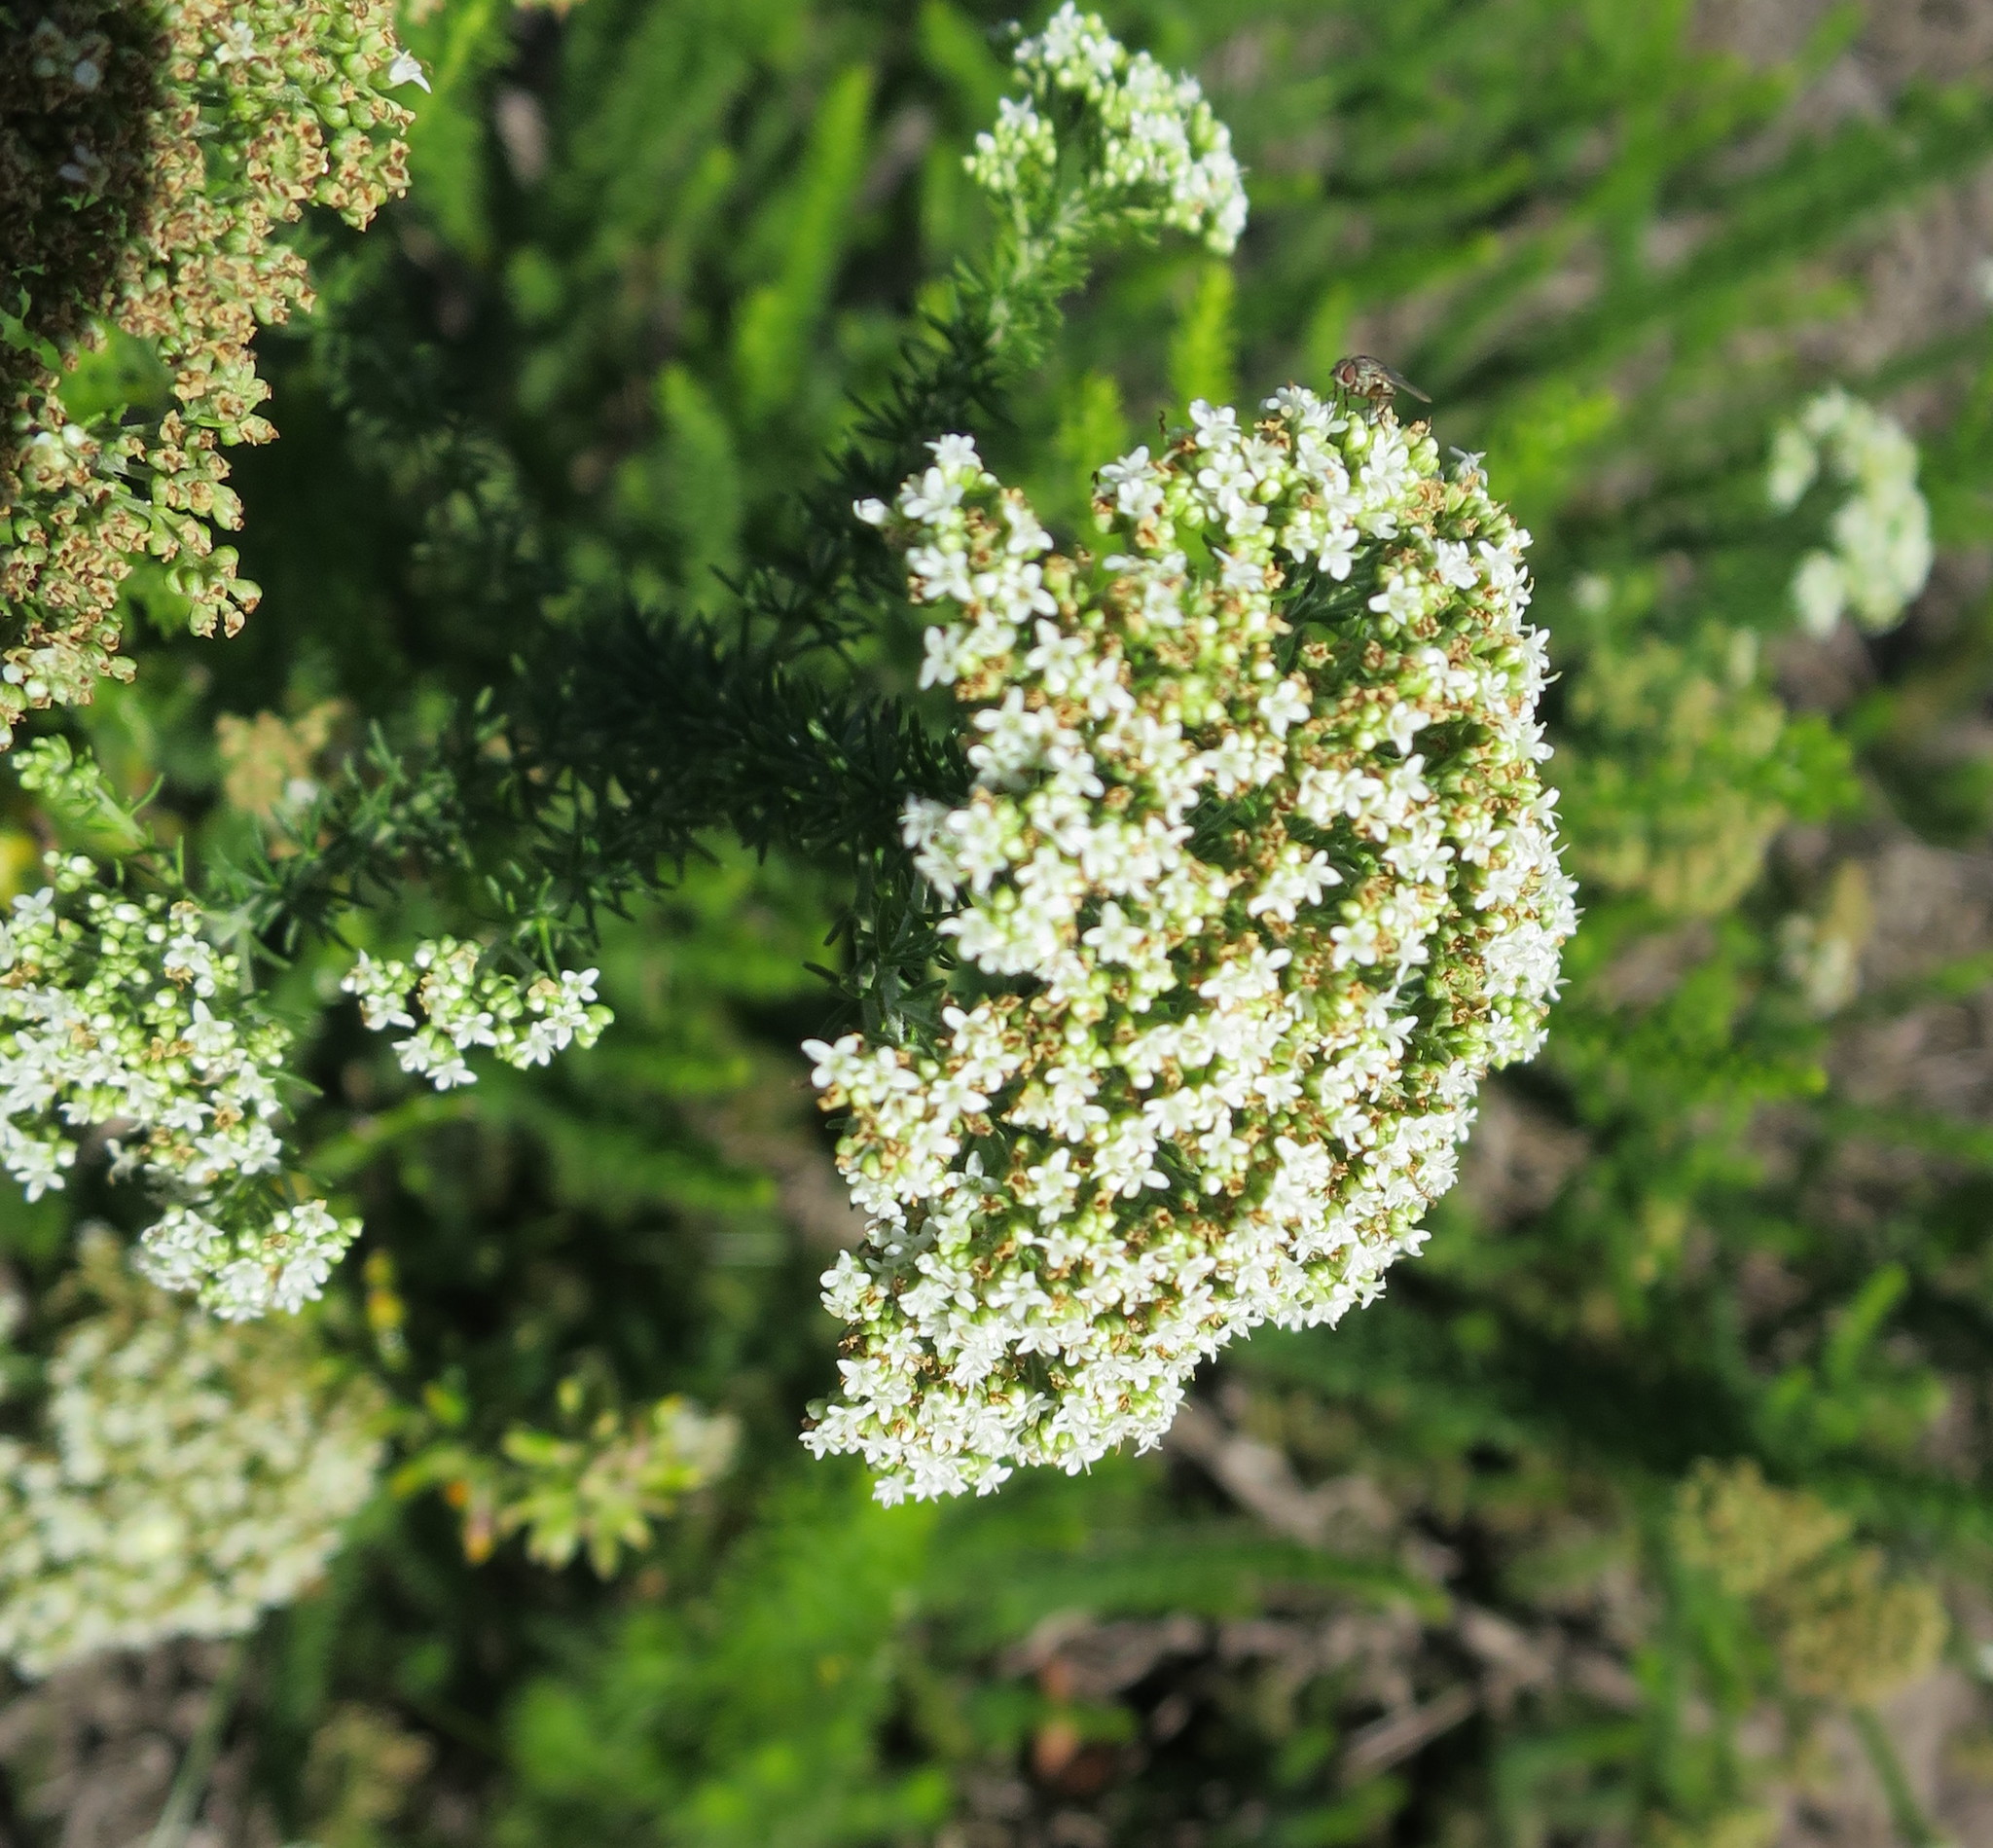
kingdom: Plantae
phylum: Tracheophyta
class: Magnoliopsida
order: Lamiales
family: Scrophulariaceae
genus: Selago
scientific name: Selago corymbosa
